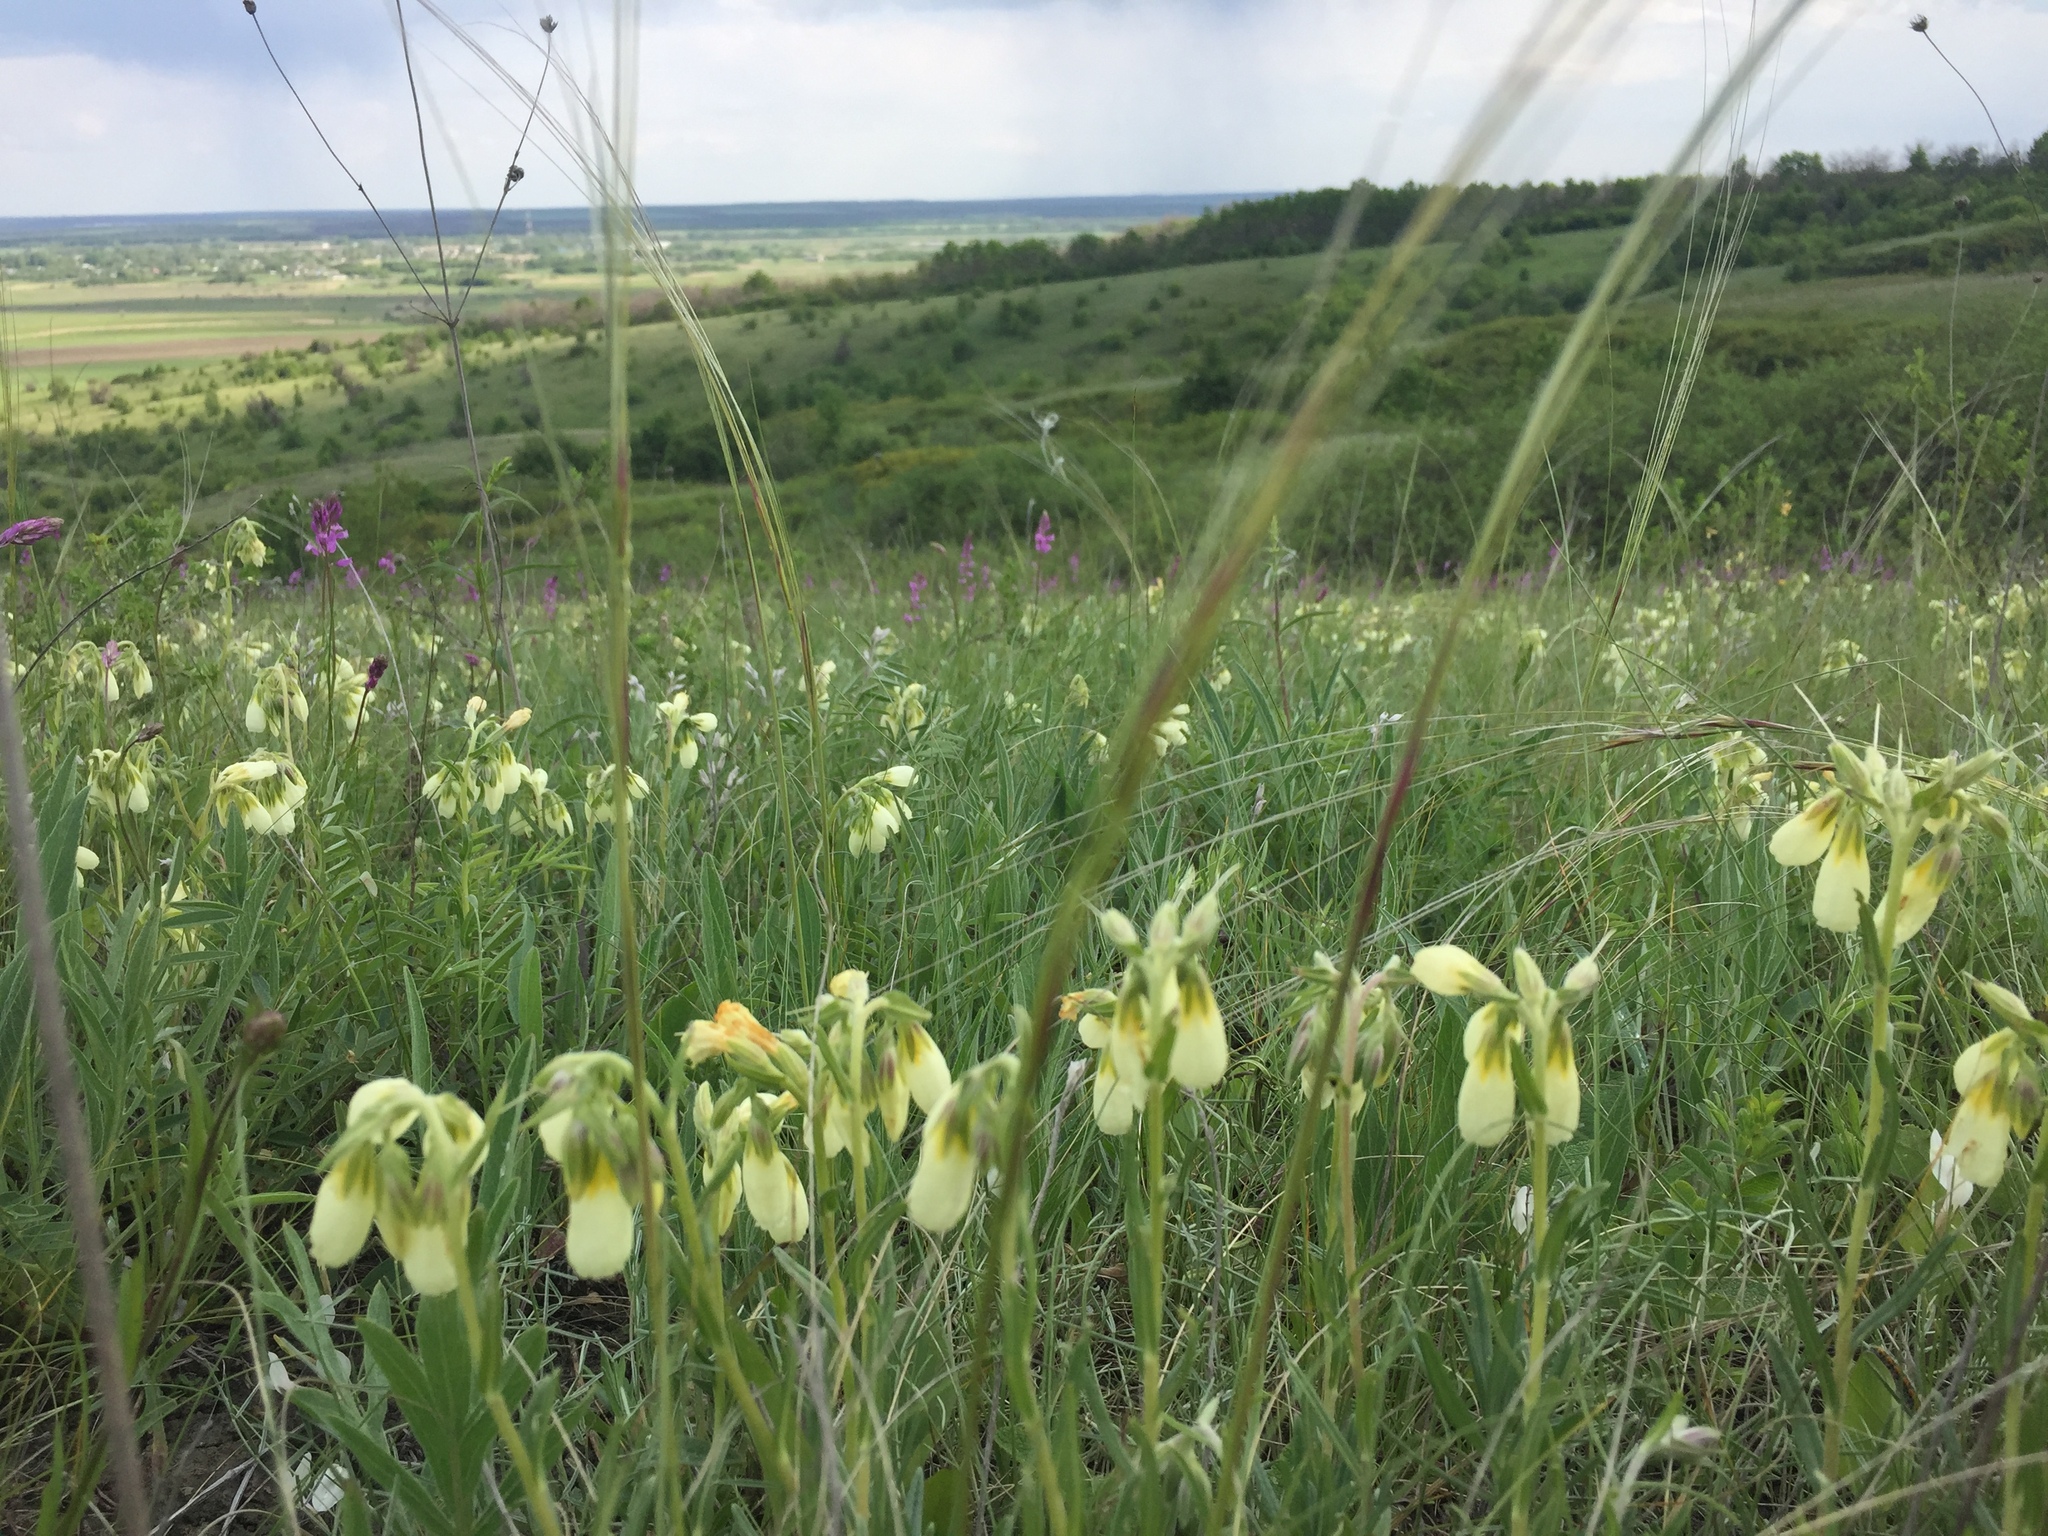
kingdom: Plantae
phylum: Tracheophyta
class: Magnoliopsida
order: Boraginales
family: Boraginaceae
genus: Onosma
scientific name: Onosma simplicissima
